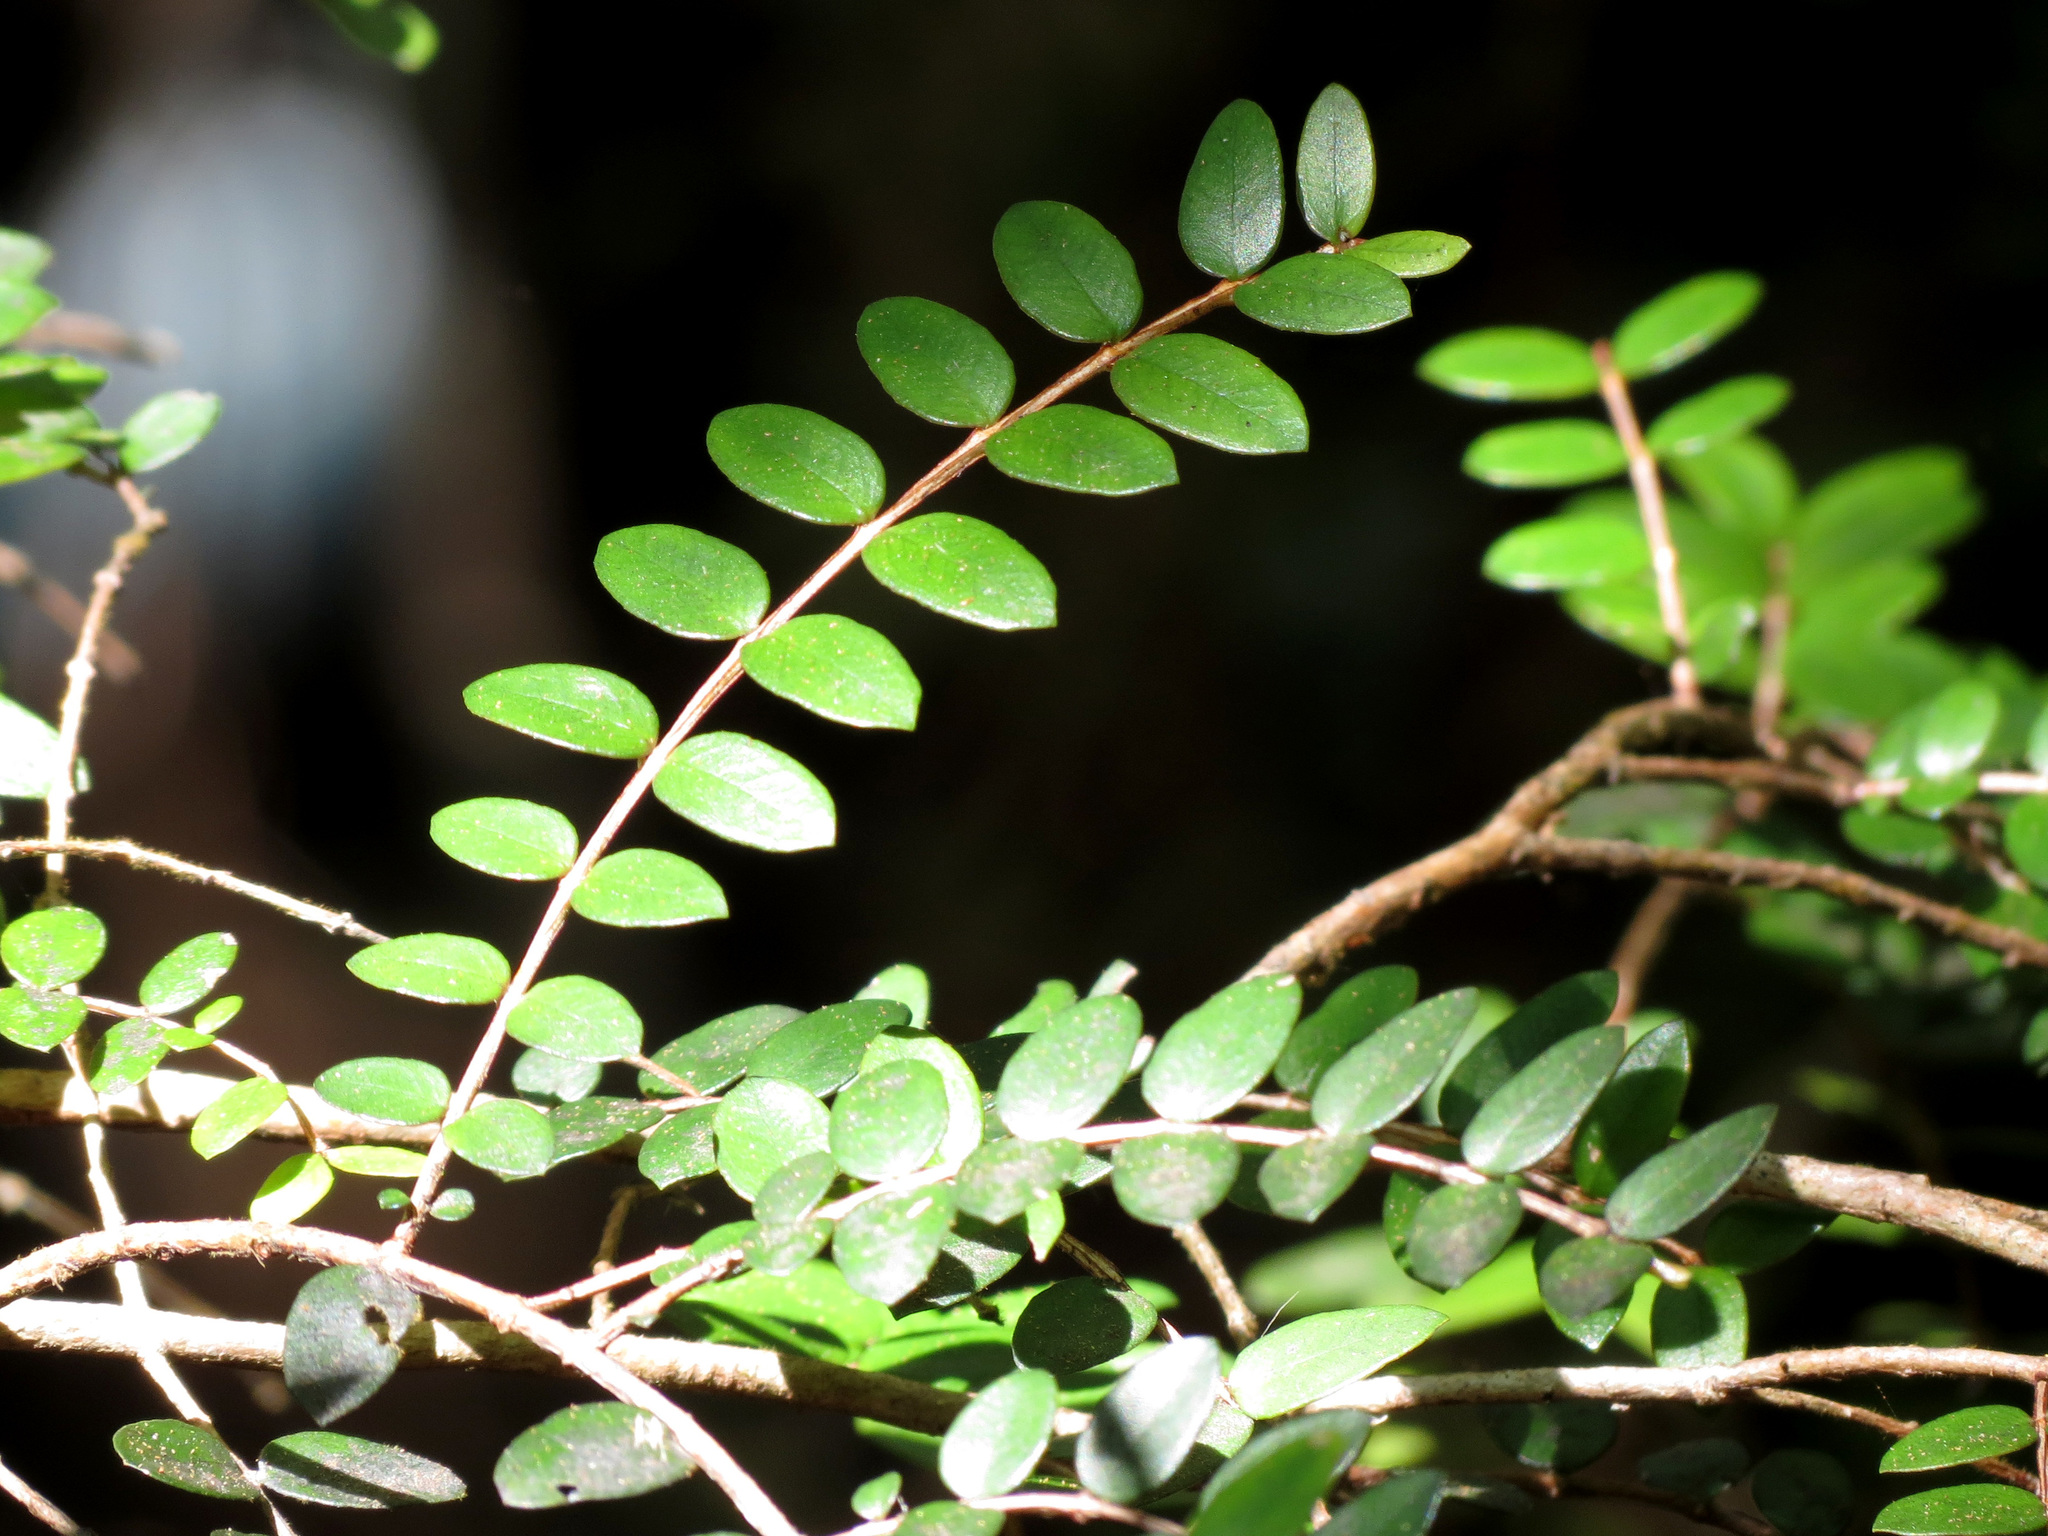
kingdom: Plantae
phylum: Tracheophyta
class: Magnoliopsida
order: Myrtales
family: Myrtaceae
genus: Metrosideros
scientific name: Metrosideros diffusa
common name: Small ratavine
